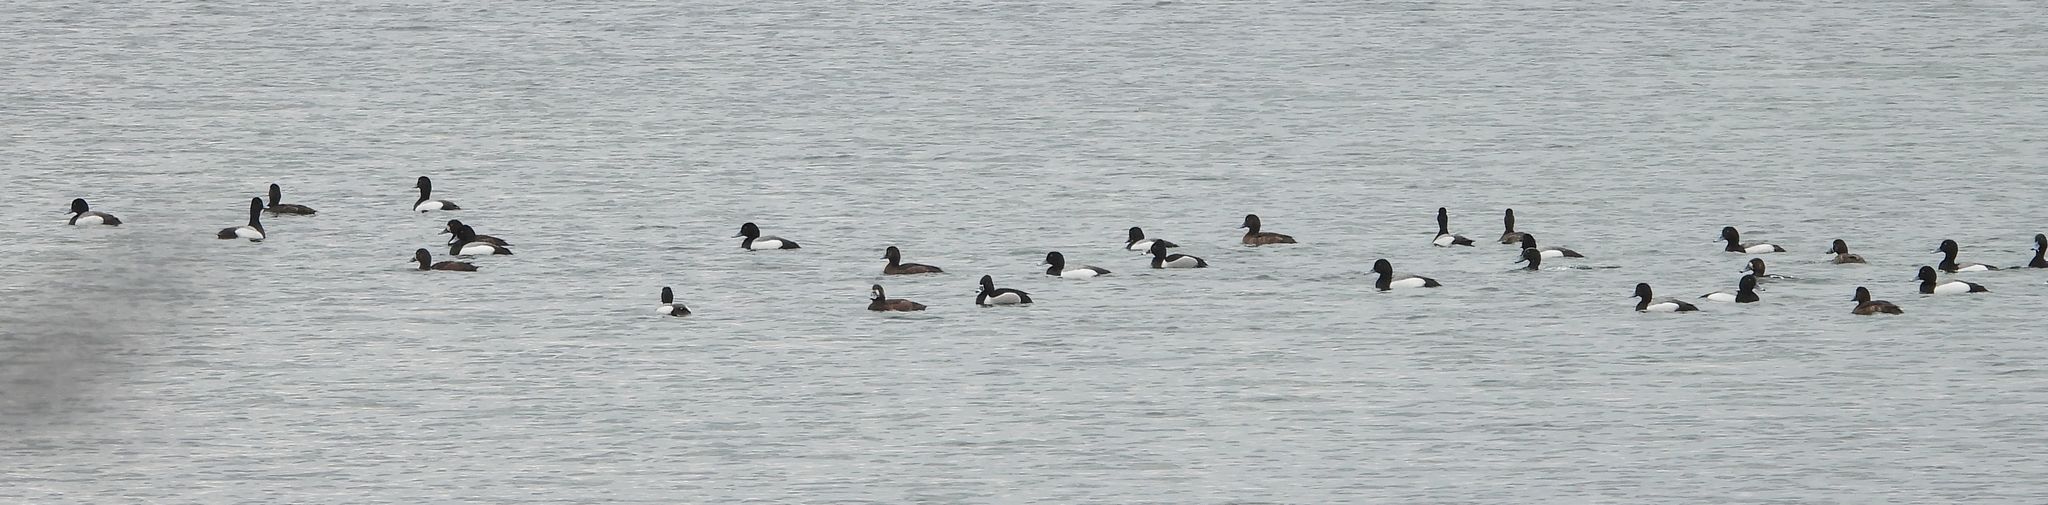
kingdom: Animalia
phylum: Chordata
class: Aves
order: Anseriformes
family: Anatidae
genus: Aythya
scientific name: Aythya marila
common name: Greater scaup
